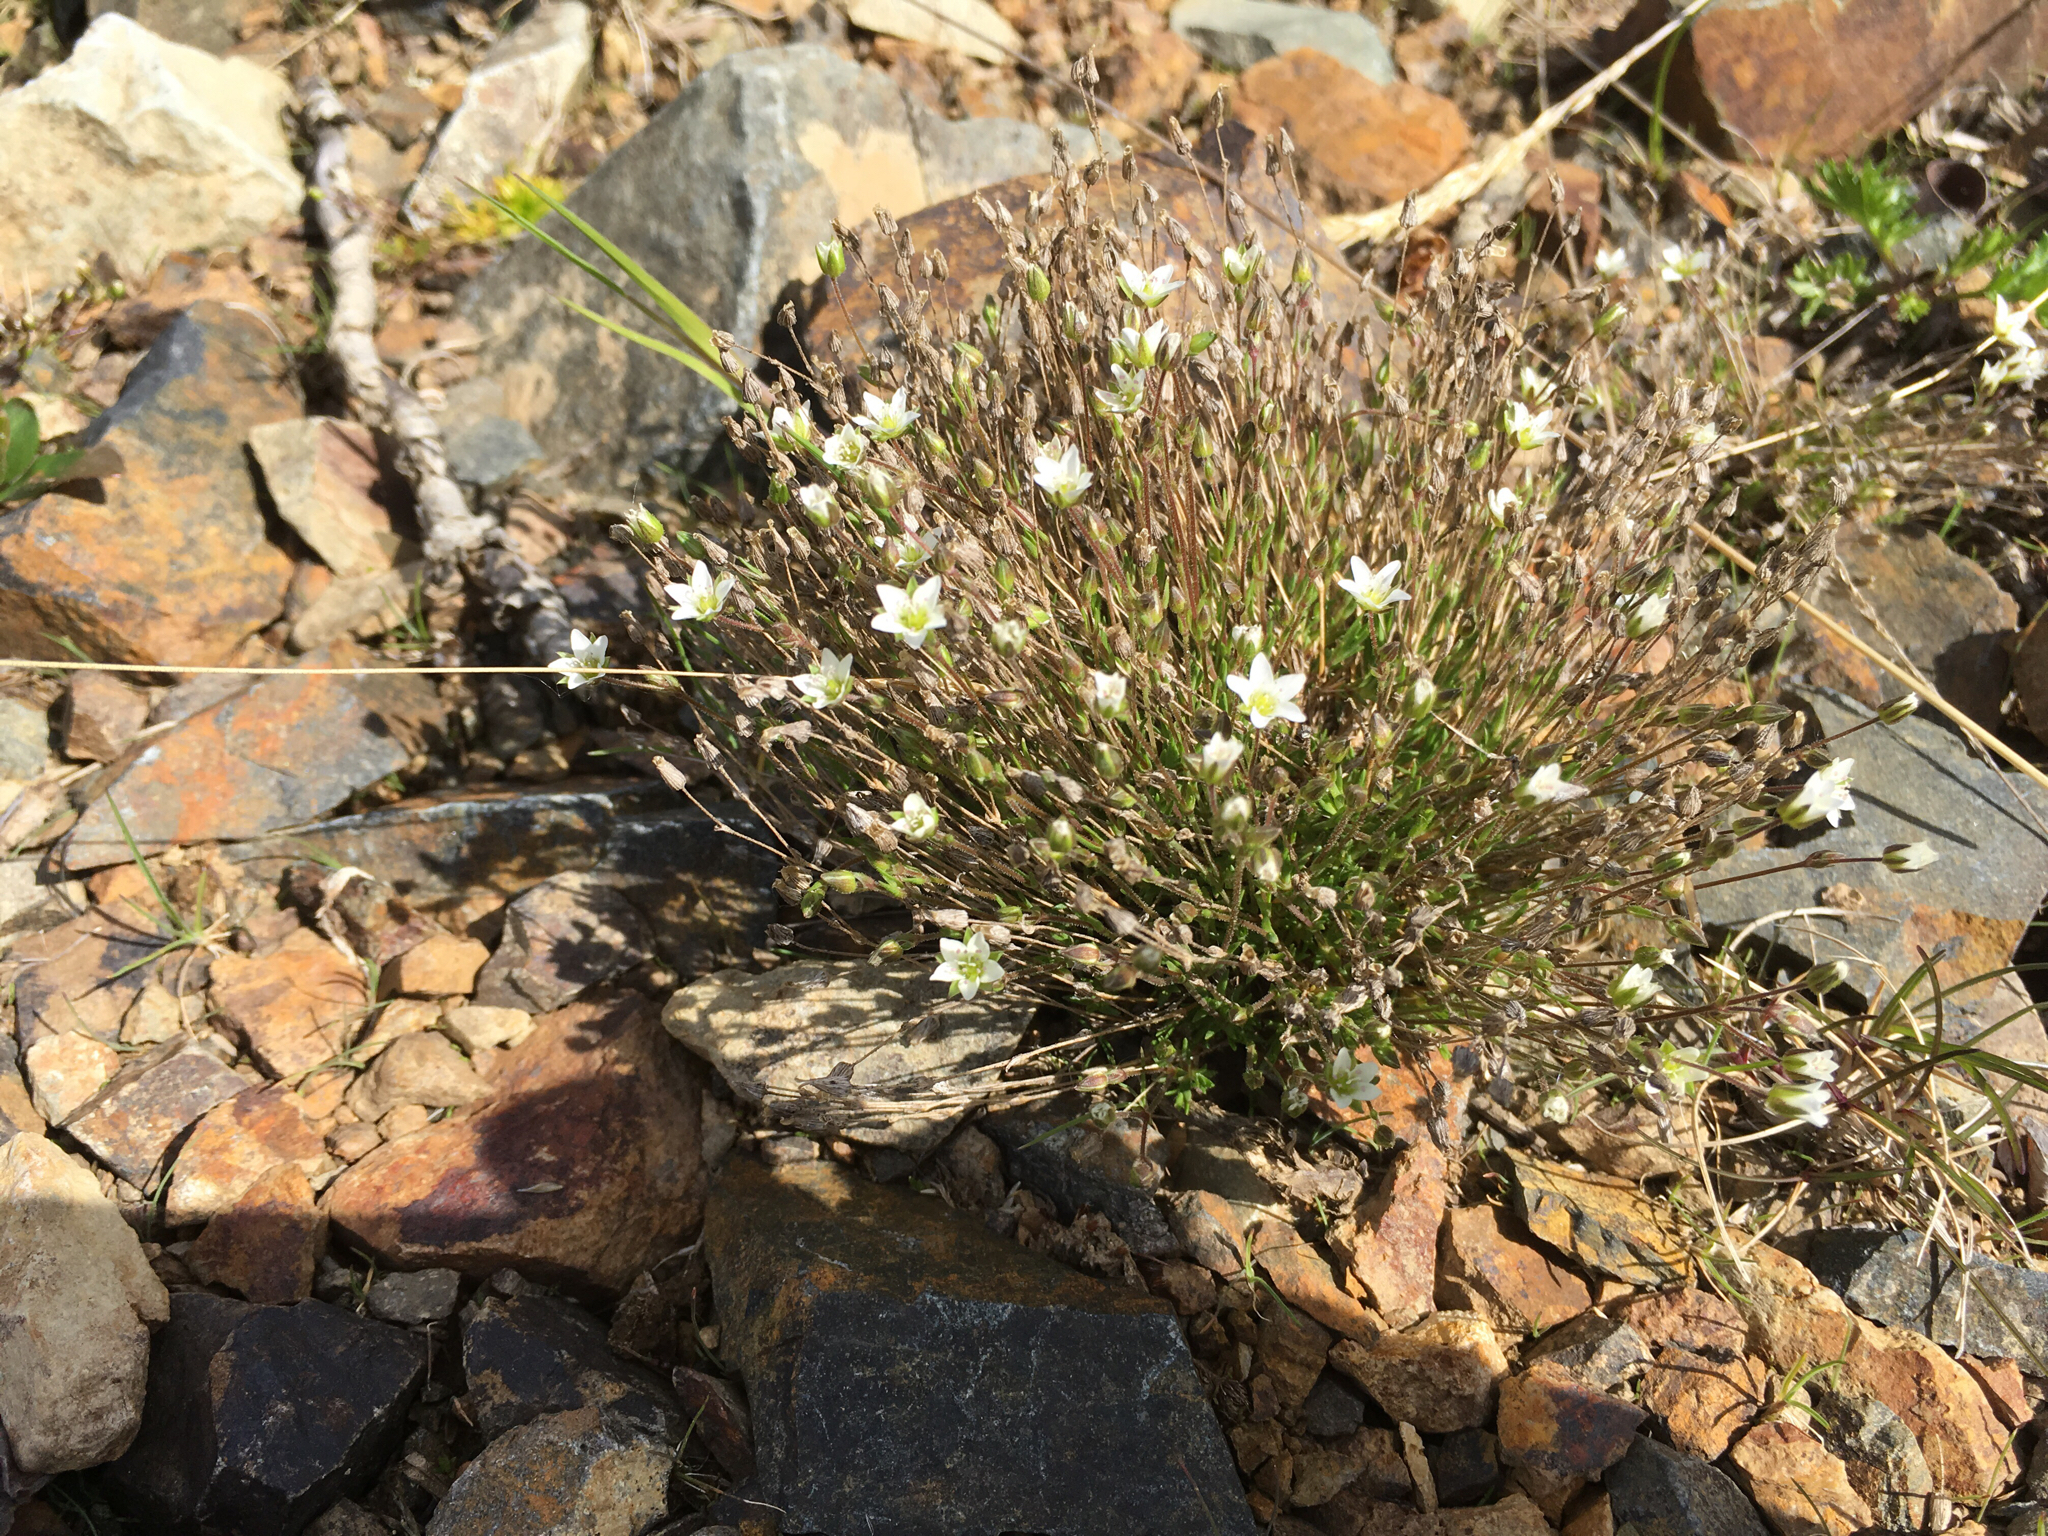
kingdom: Plantae
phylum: Tracheophyta
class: Magnoliopsida
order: Caryophyllales
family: Caryophyllaceae
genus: Sabulina
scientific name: Sabulina rubella
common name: Beautiful sandwort
